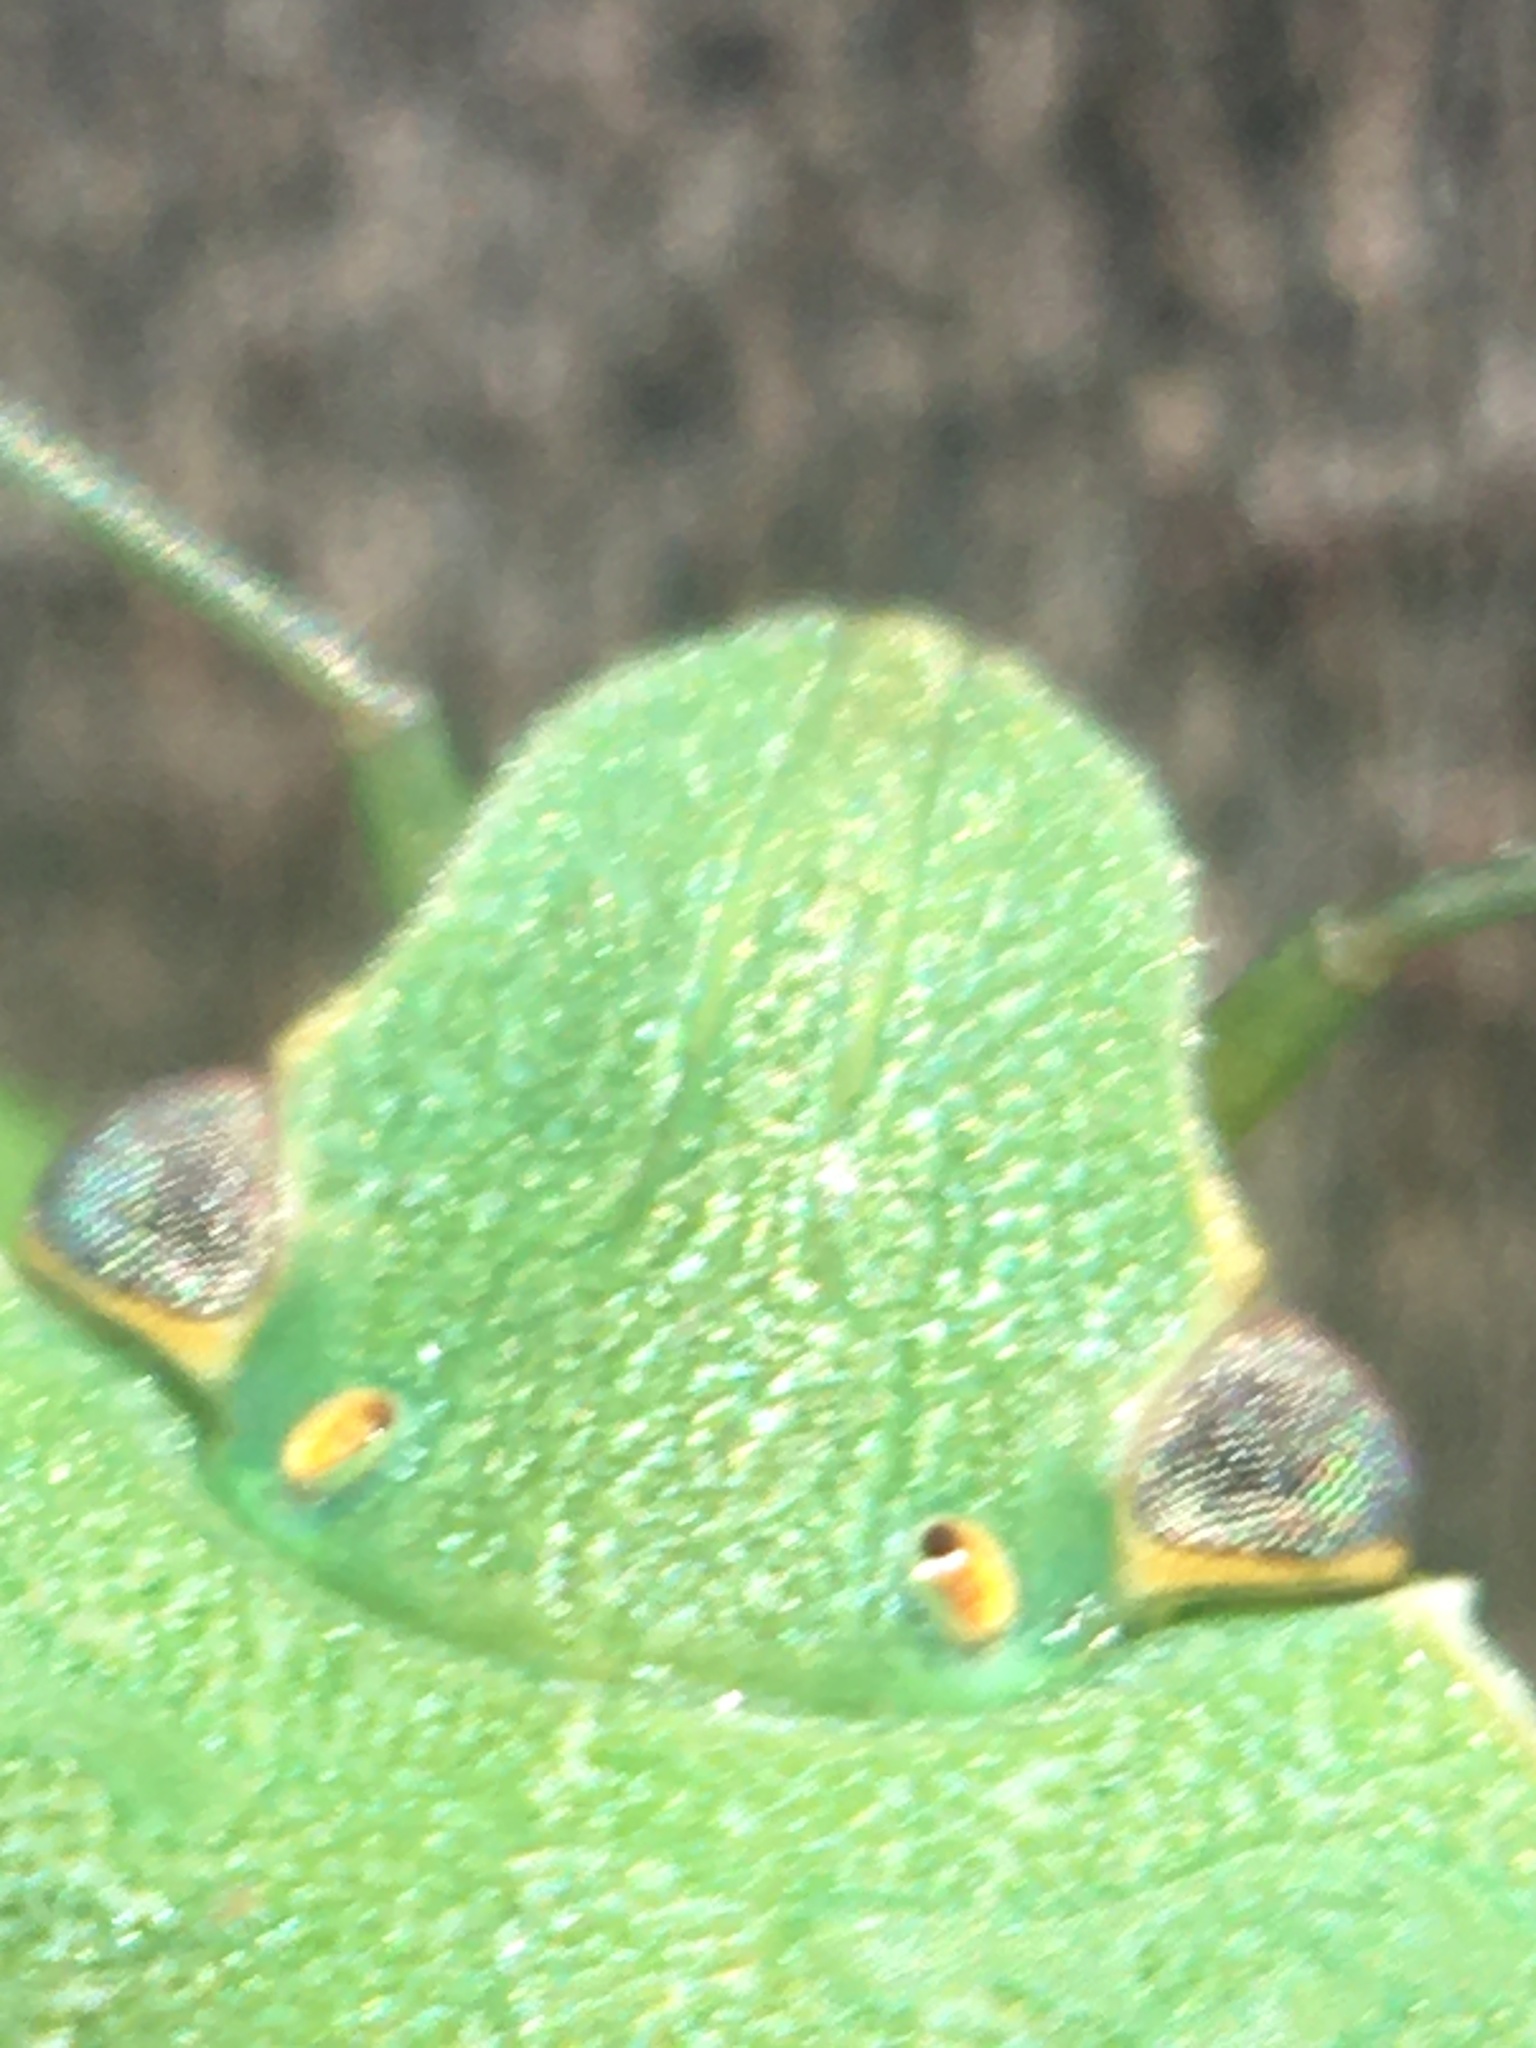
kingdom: Animalia
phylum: Arthropoda
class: Insecta
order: Hemiptera
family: Pentatomidae
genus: Nezara
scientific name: Nezara viridula
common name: Southern green stink bug
